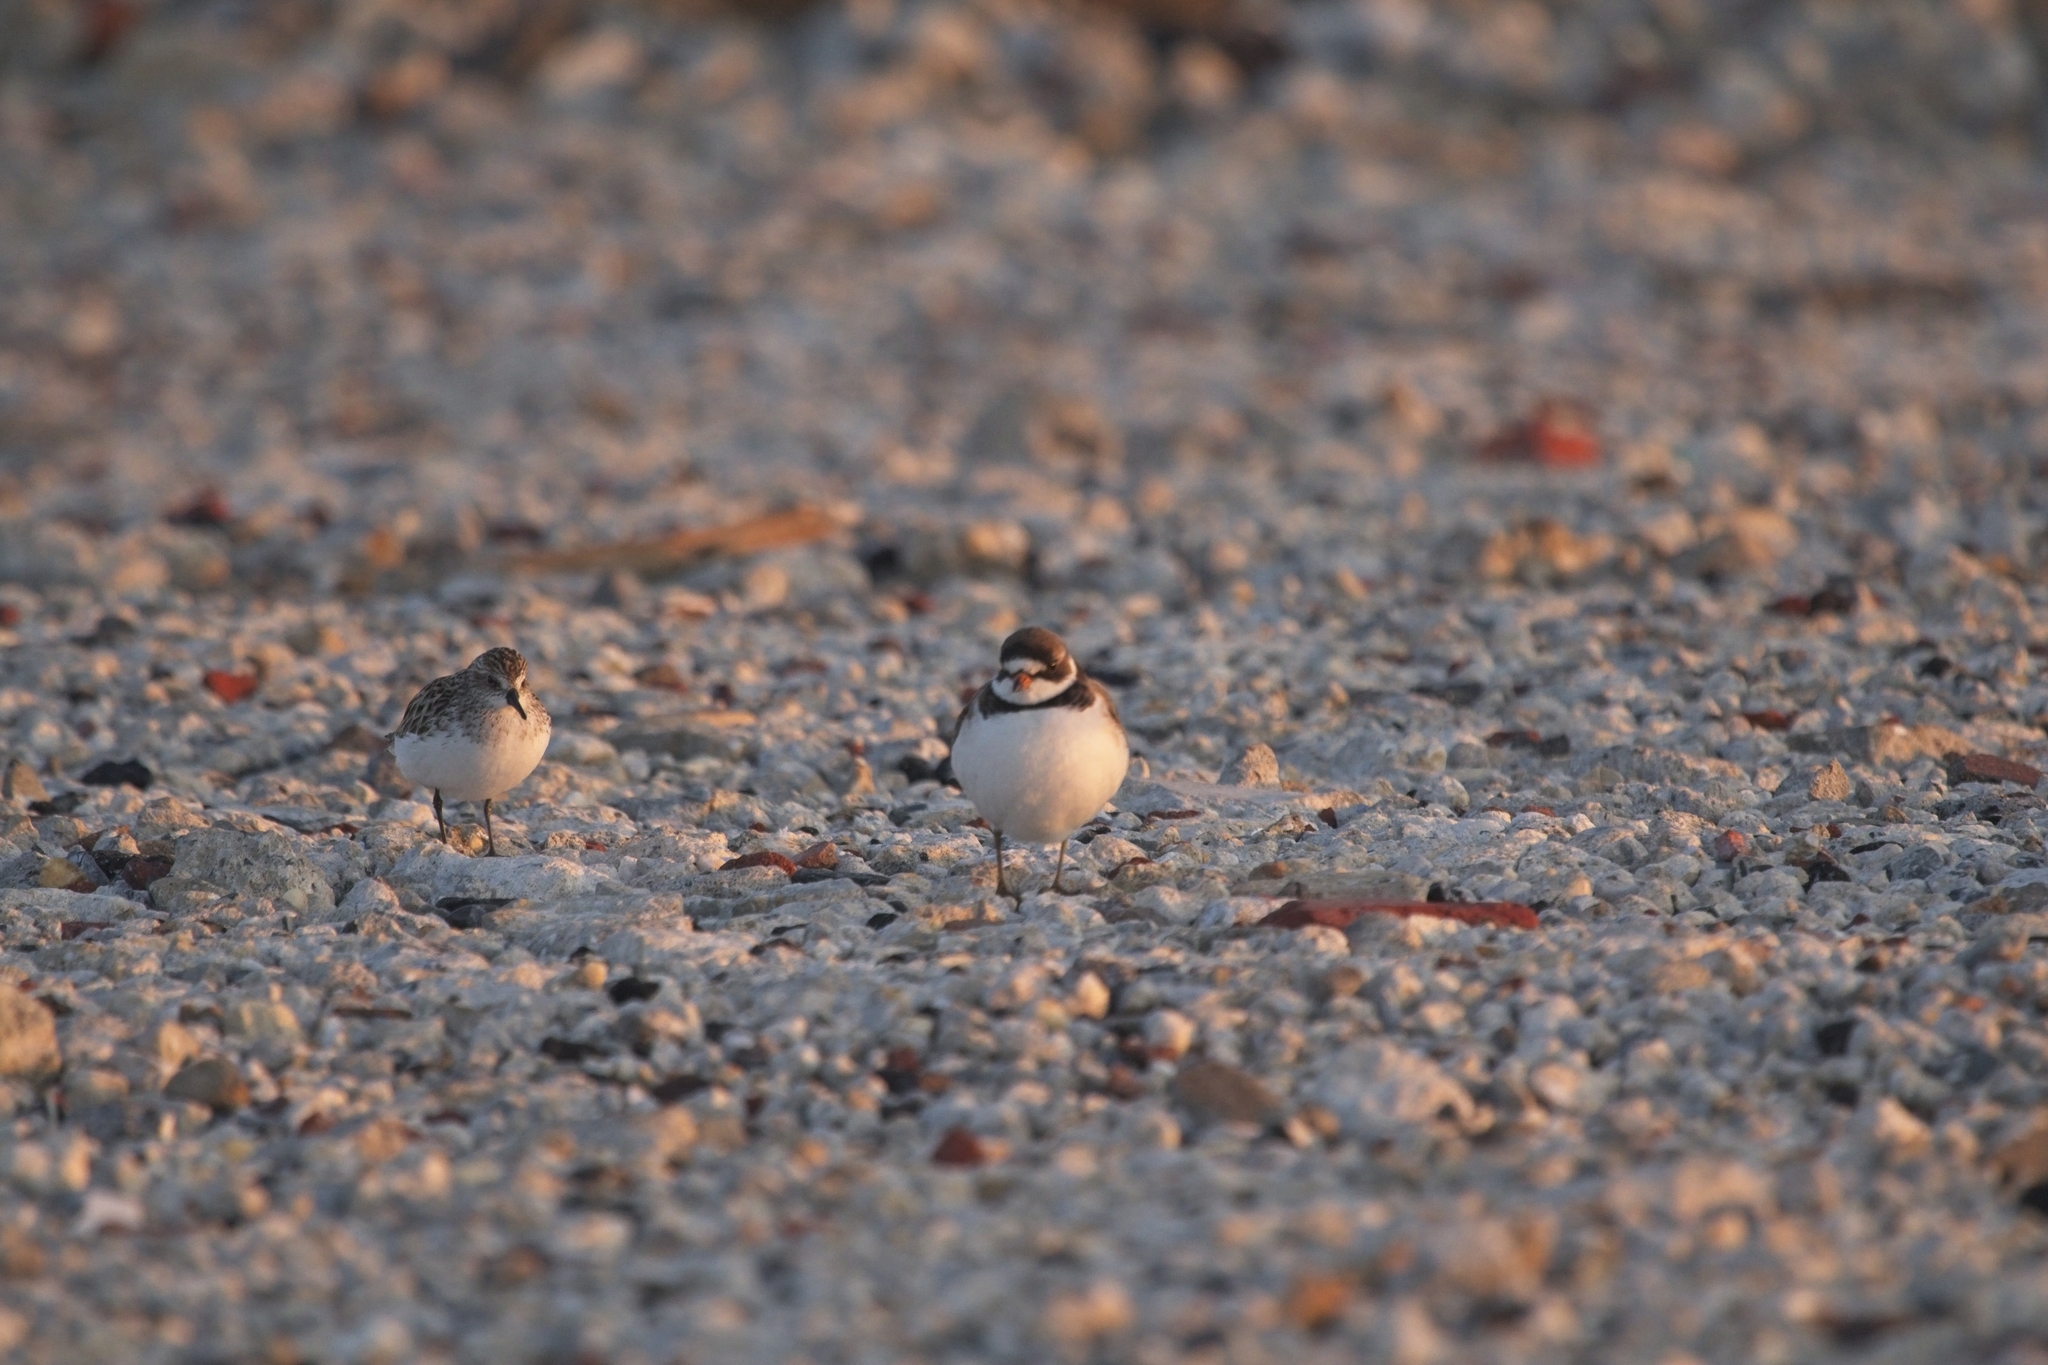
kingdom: Animalia
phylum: Chordata
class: Aves
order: Charadriiformes
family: Charadriidae
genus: Charadrius
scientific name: Charadrius semipalmatus
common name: Semipalmated plover
